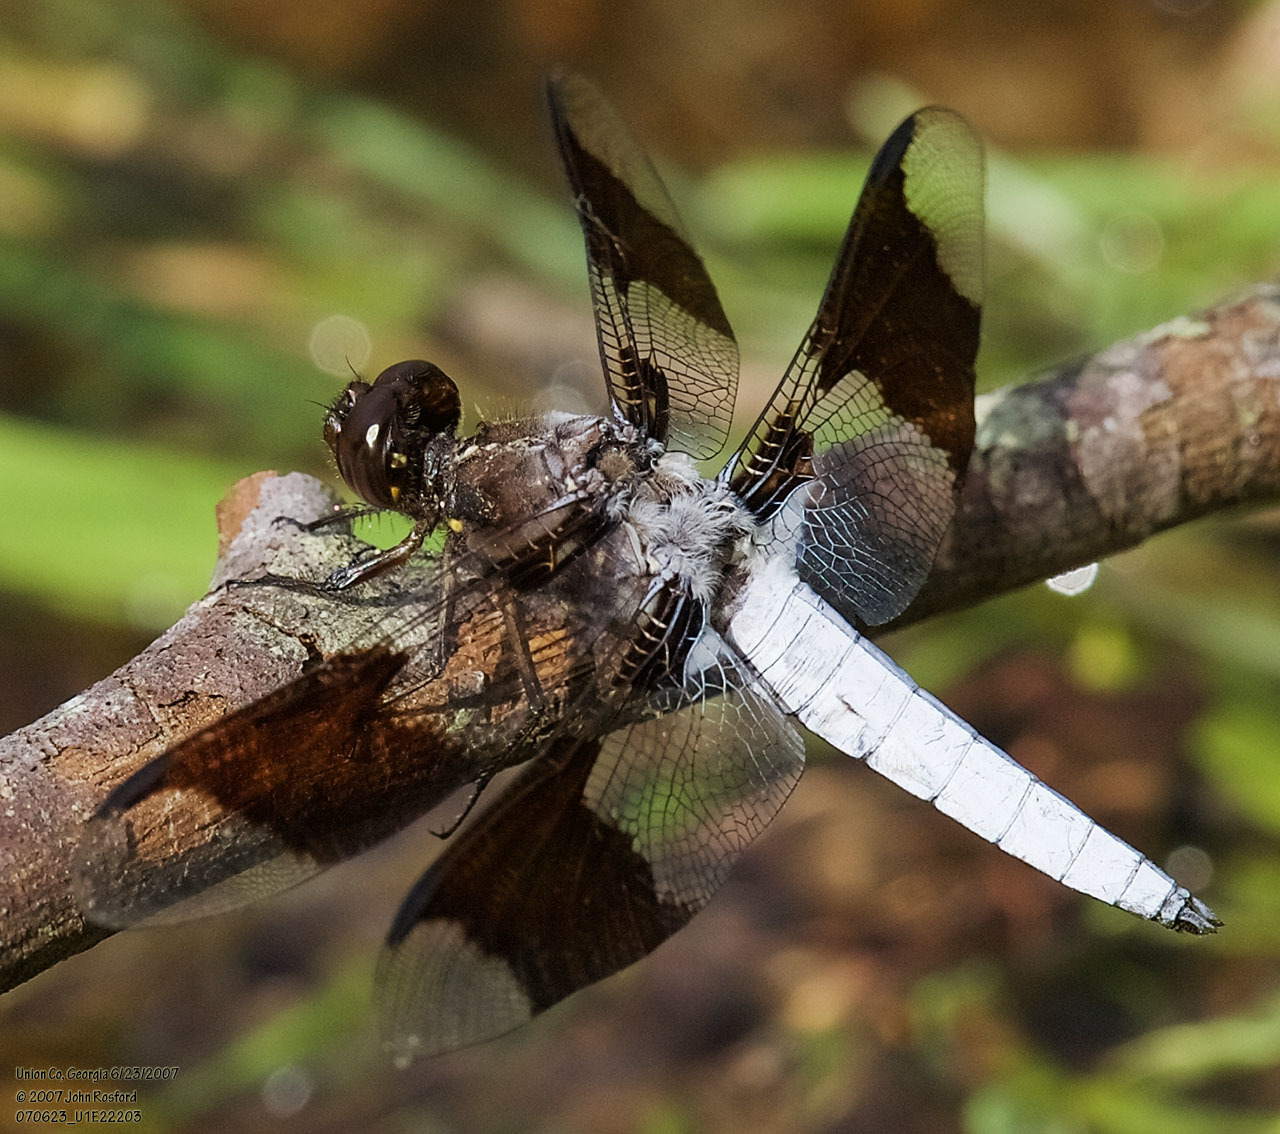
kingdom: Animalia
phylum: Arthropoda
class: Insecta
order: Odonata
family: Libellulidae
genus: Plathemis
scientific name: Plathemis lydia
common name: Common whitetail
